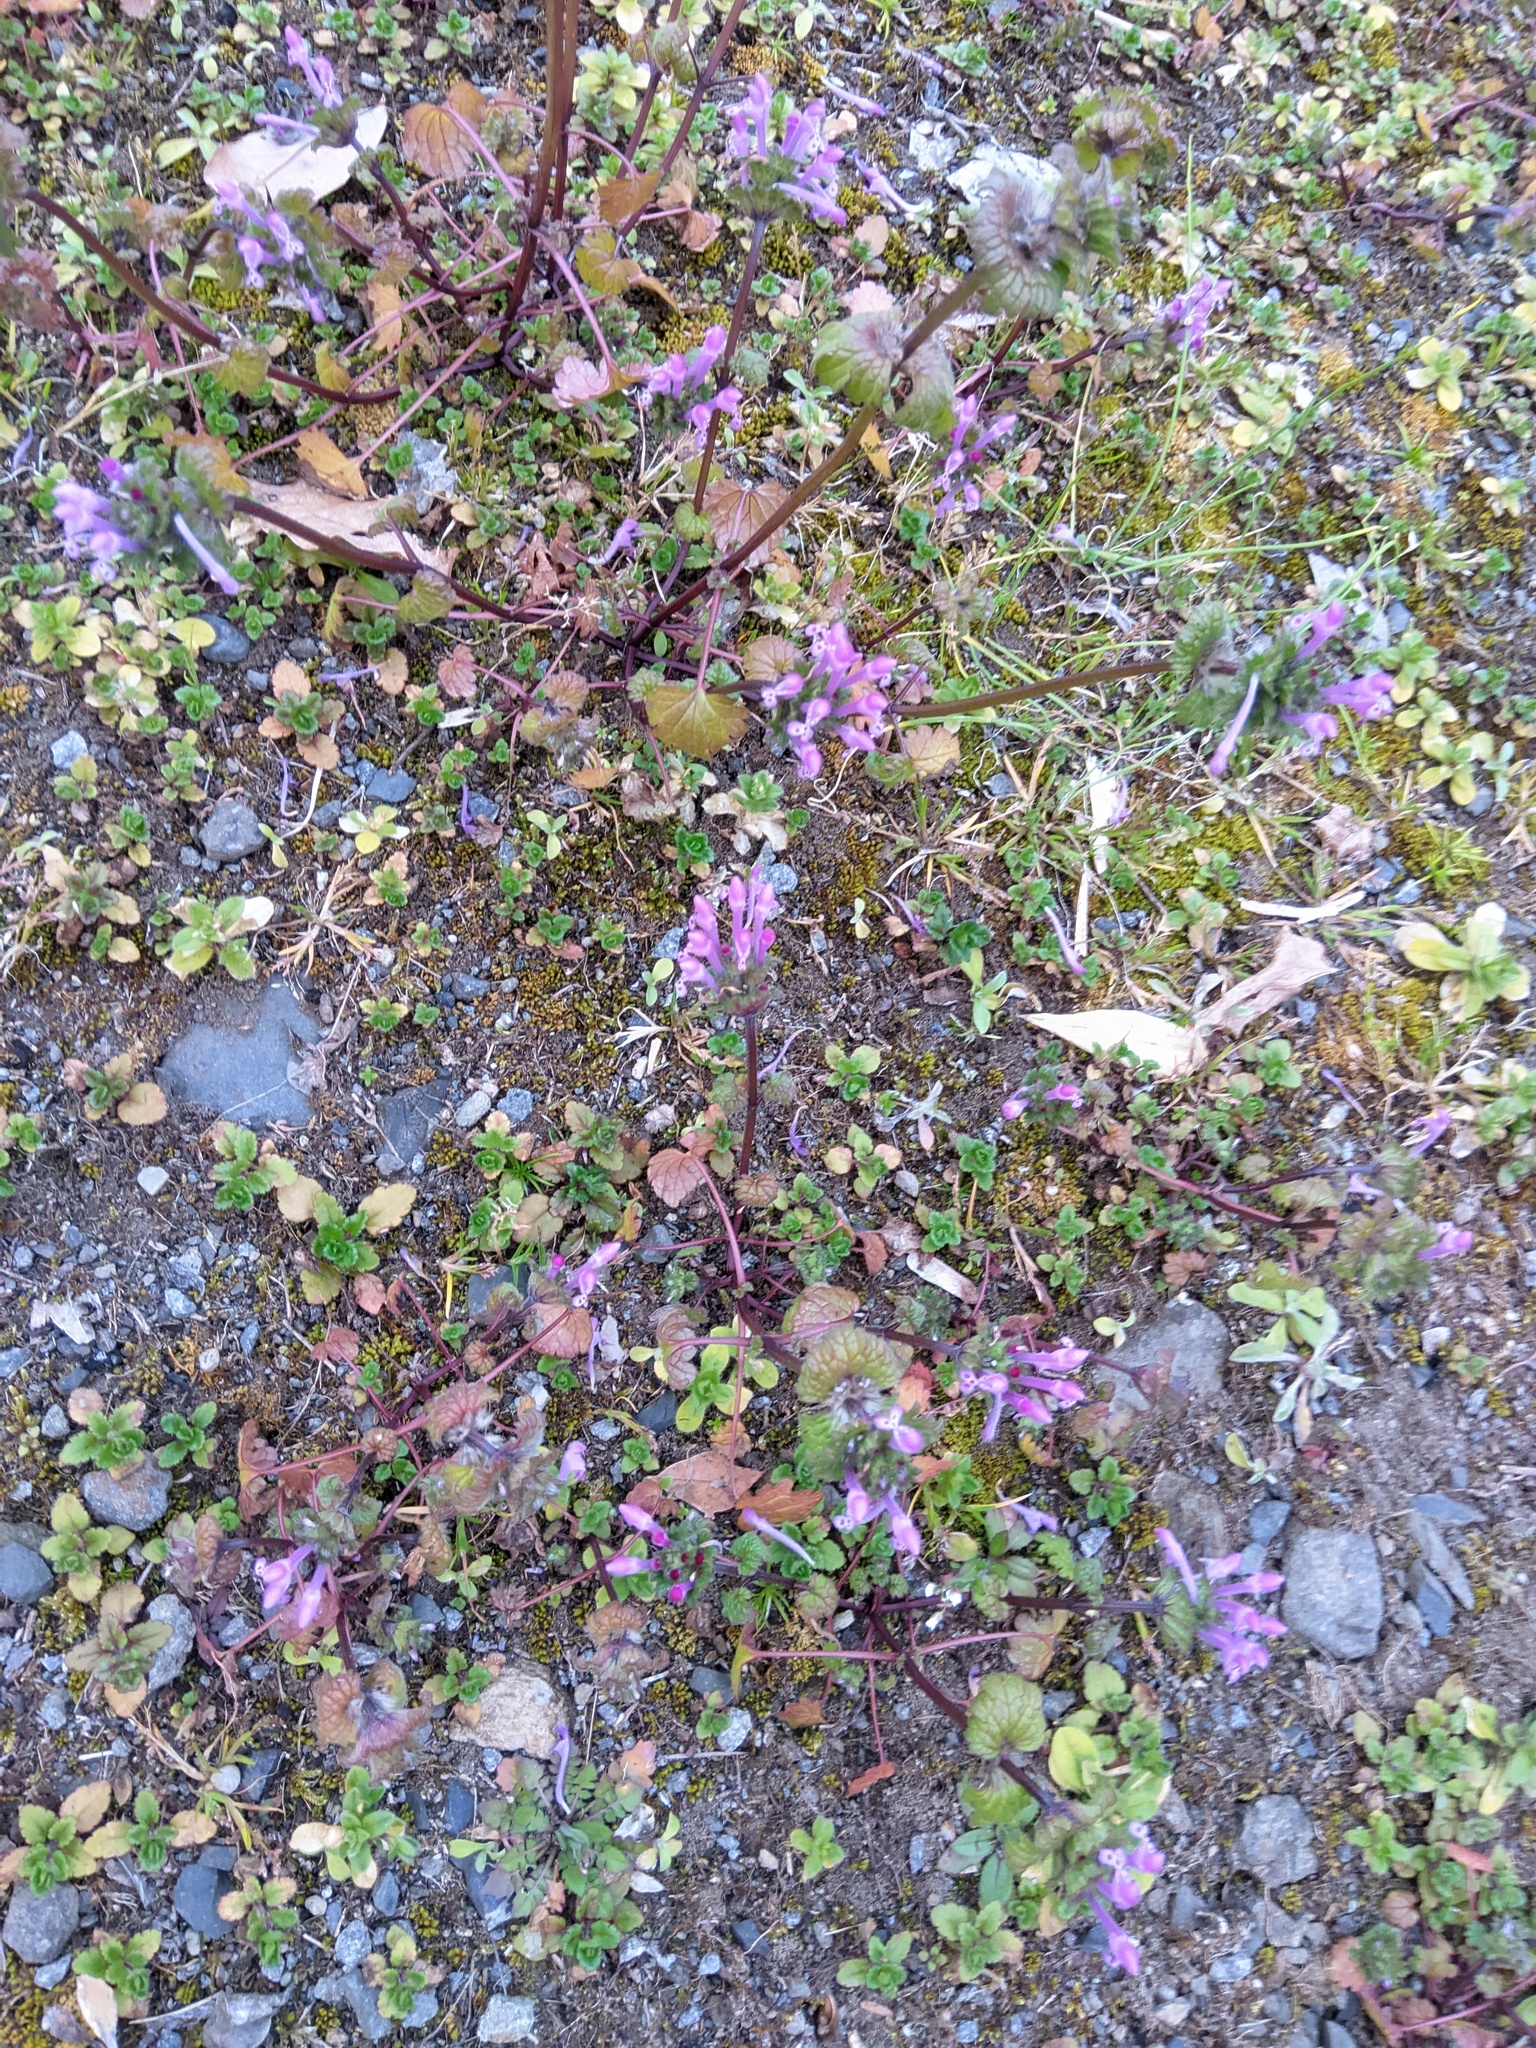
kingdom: Plantae
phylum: Tracheophyta
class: Magnoliopsida
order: Lamiales
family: Lamiaceae
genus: Lamium
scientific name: Lamium amplexicaule
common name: Henbit dead-nettle
